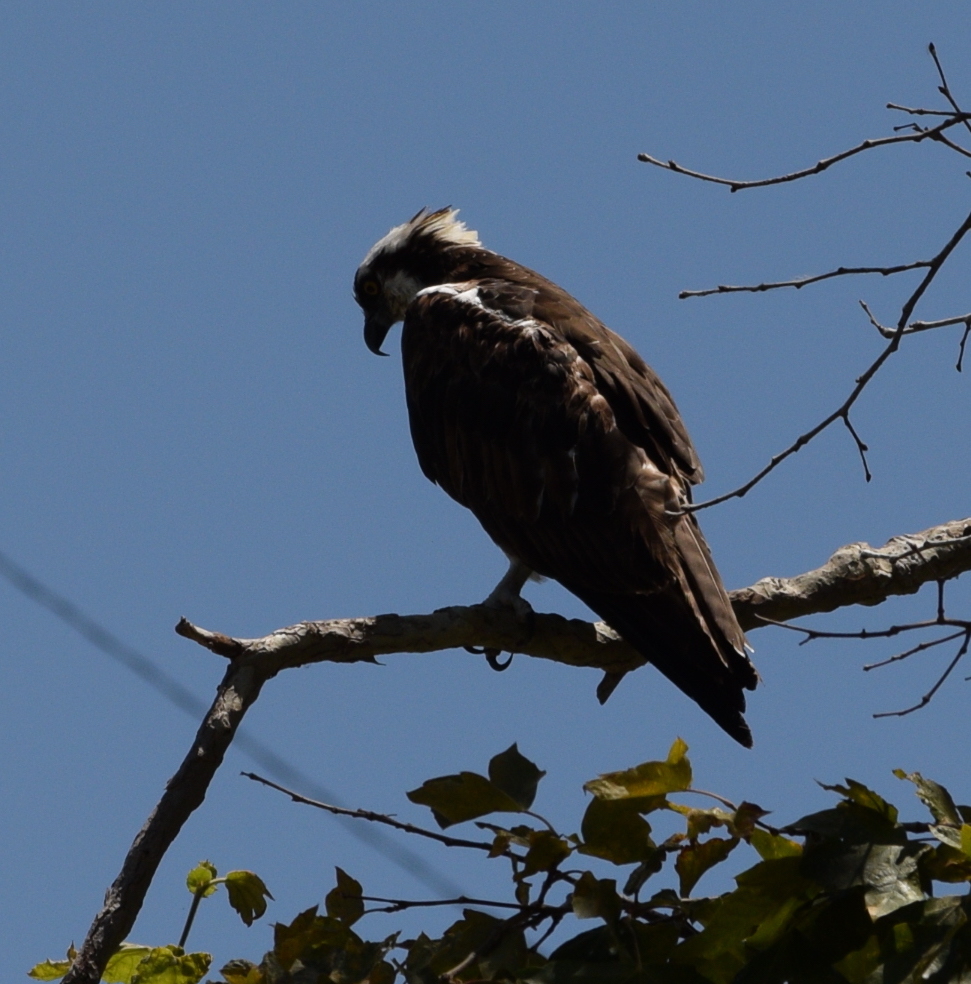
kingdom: Animalia
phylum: Chordata
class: Aves
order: Accipitriformes
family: Pandionidae
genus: Pandion
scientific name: Pandion haliaetus
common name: Osprey
